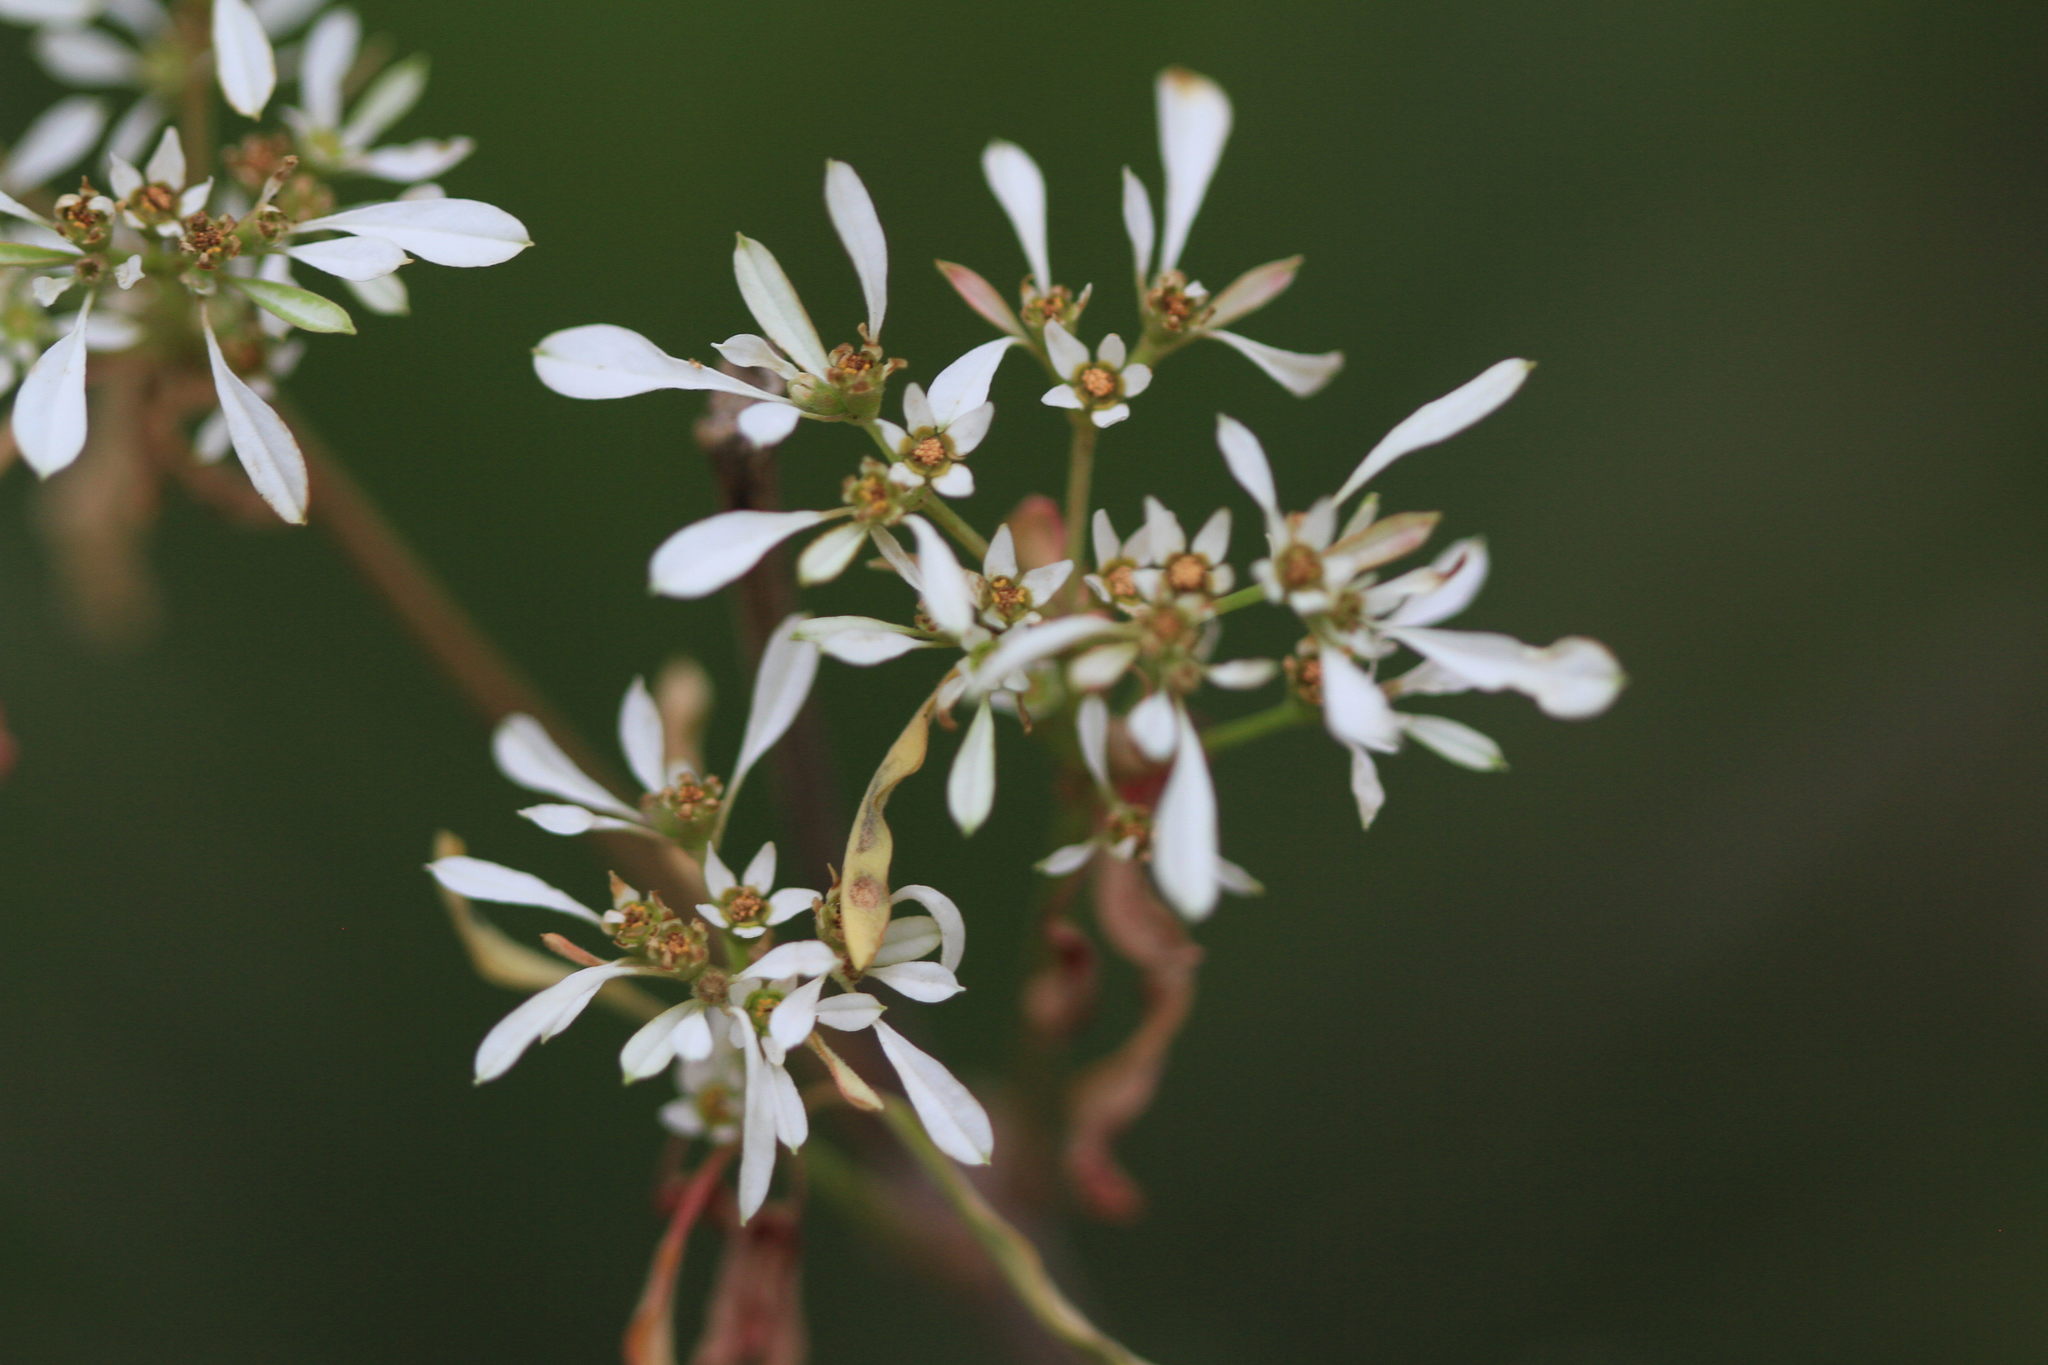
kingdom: Plantae
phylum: Tracheophyta
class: Magnoliopsida
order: Malpighiales
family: Euphorbiaceae
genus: Euphorbia
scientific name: Euphorbia leucocephala
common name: Pascuita
